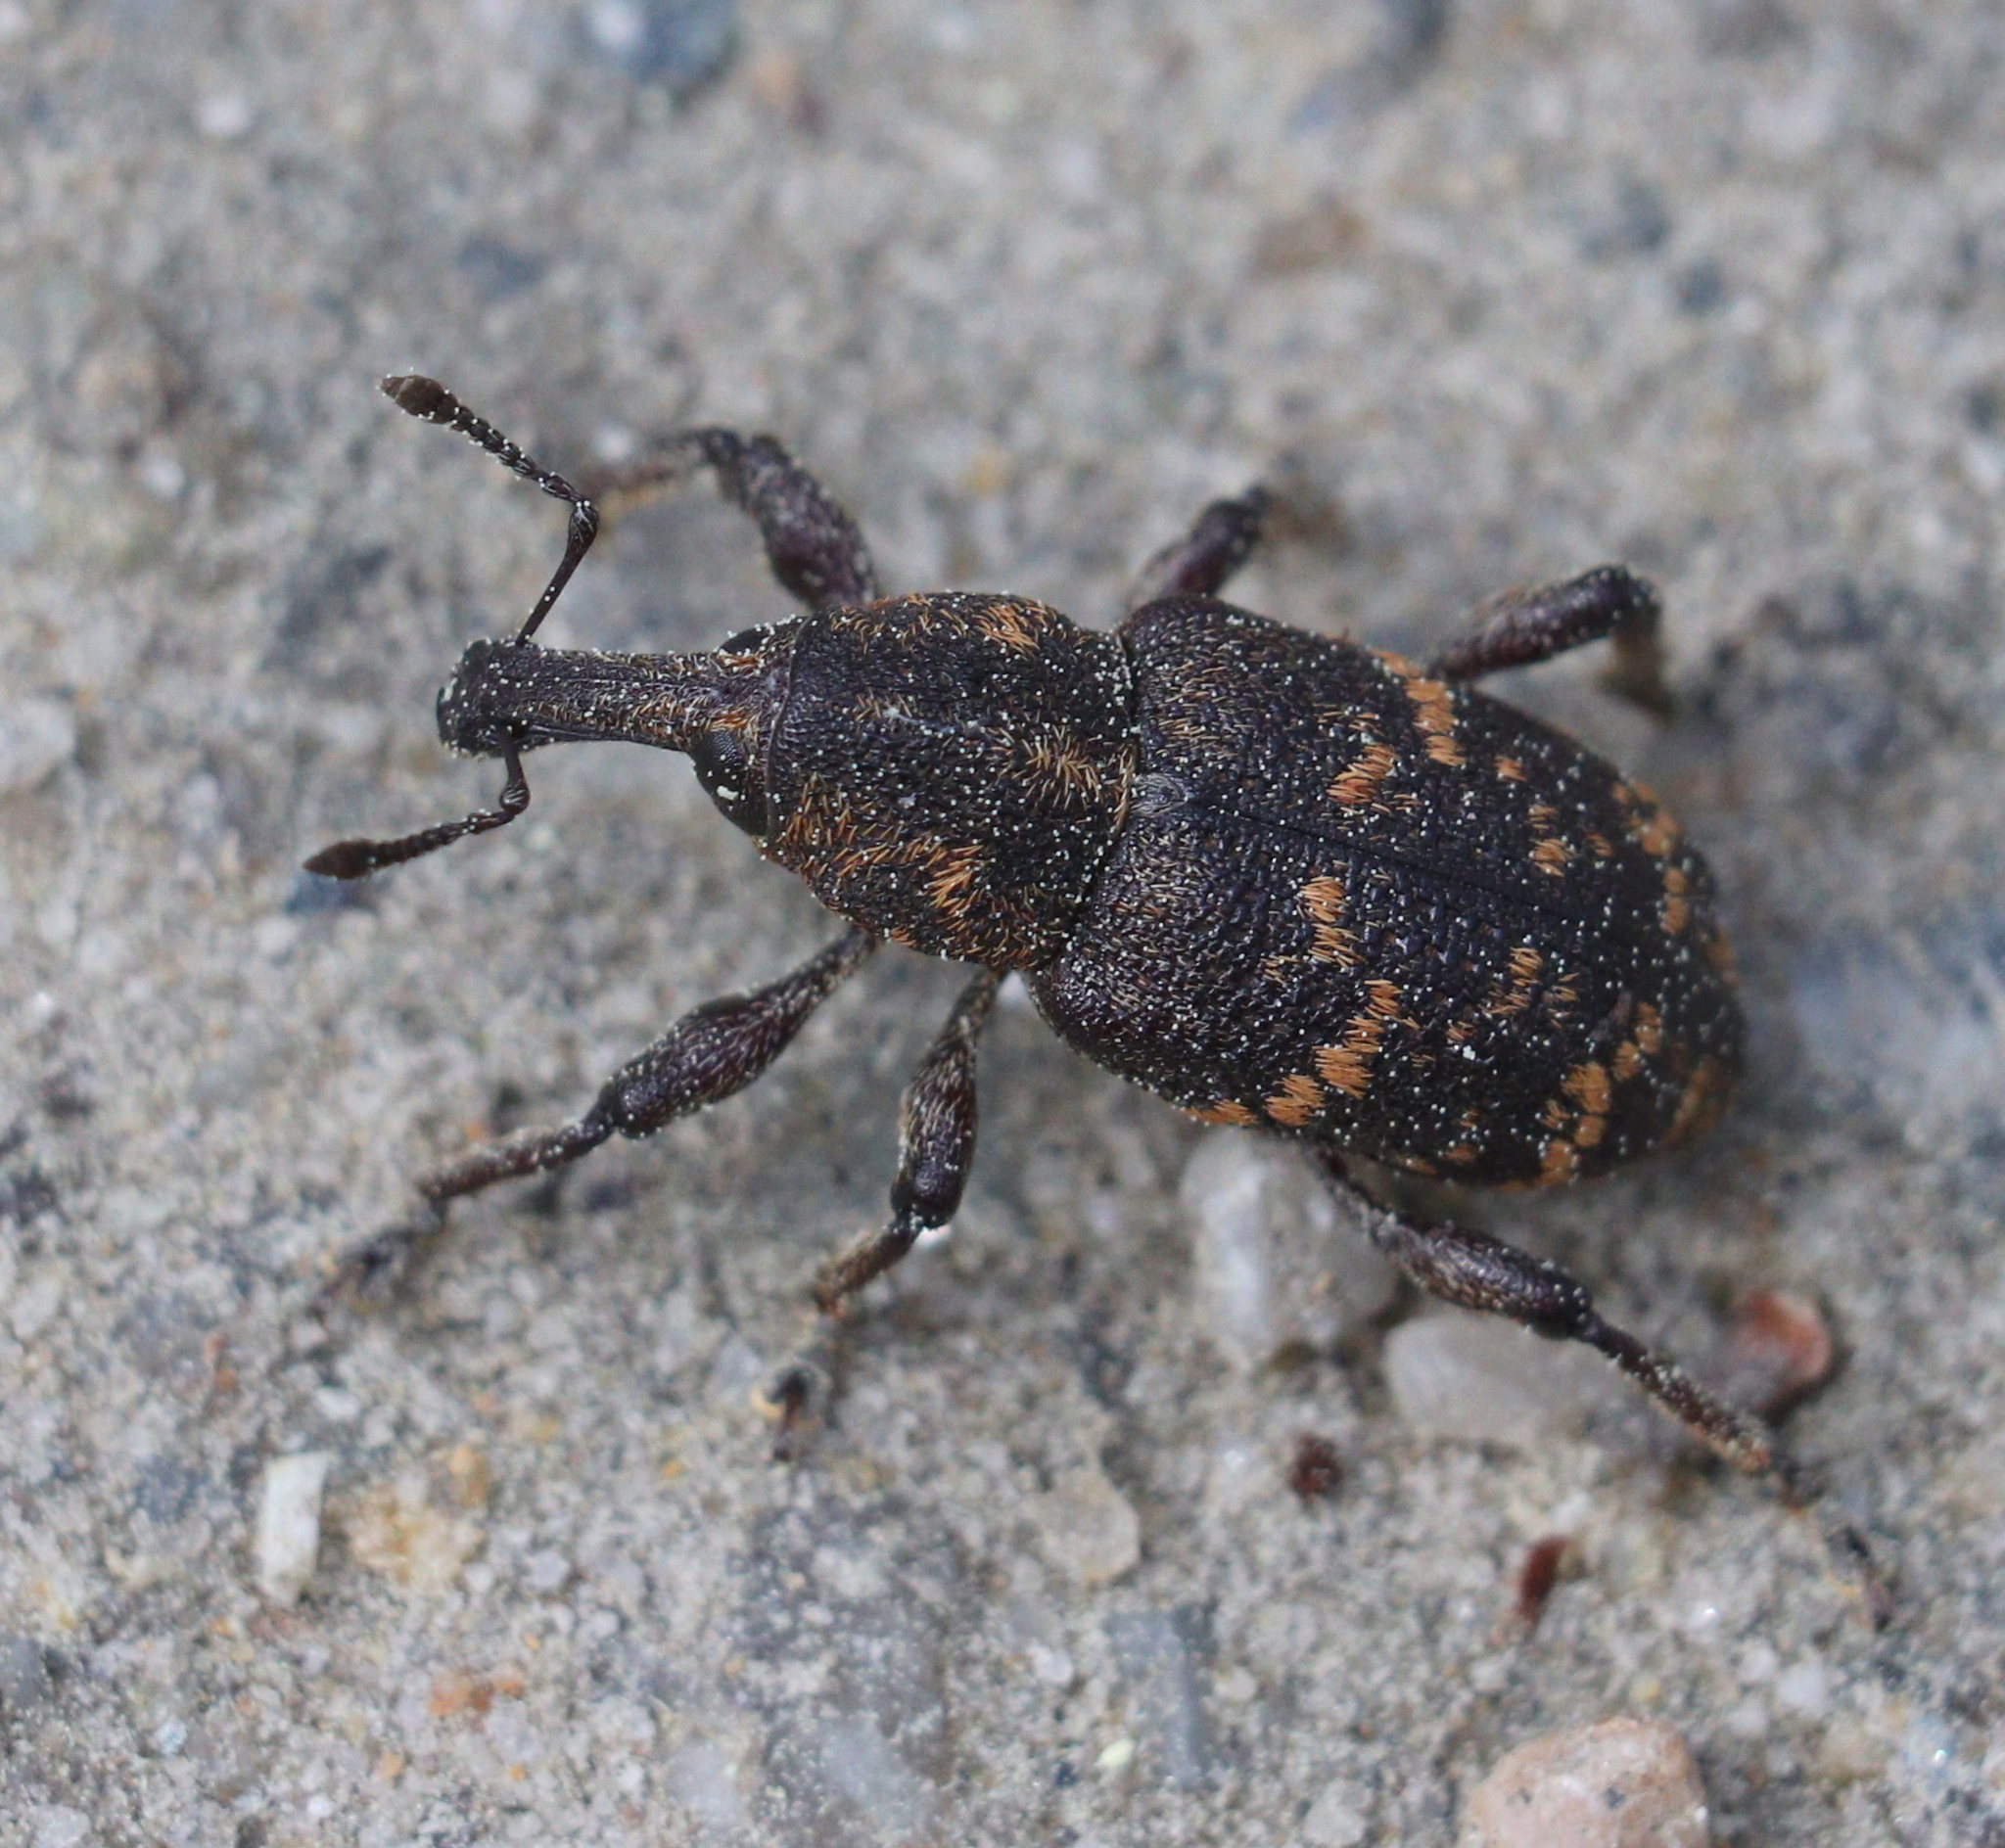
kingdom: Animalia
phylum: Arthropoda
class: Insecta
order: Coleoptera
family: Curculionidae
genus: Hylobius
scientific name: Hylobius abietis
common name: Large pine weevil
